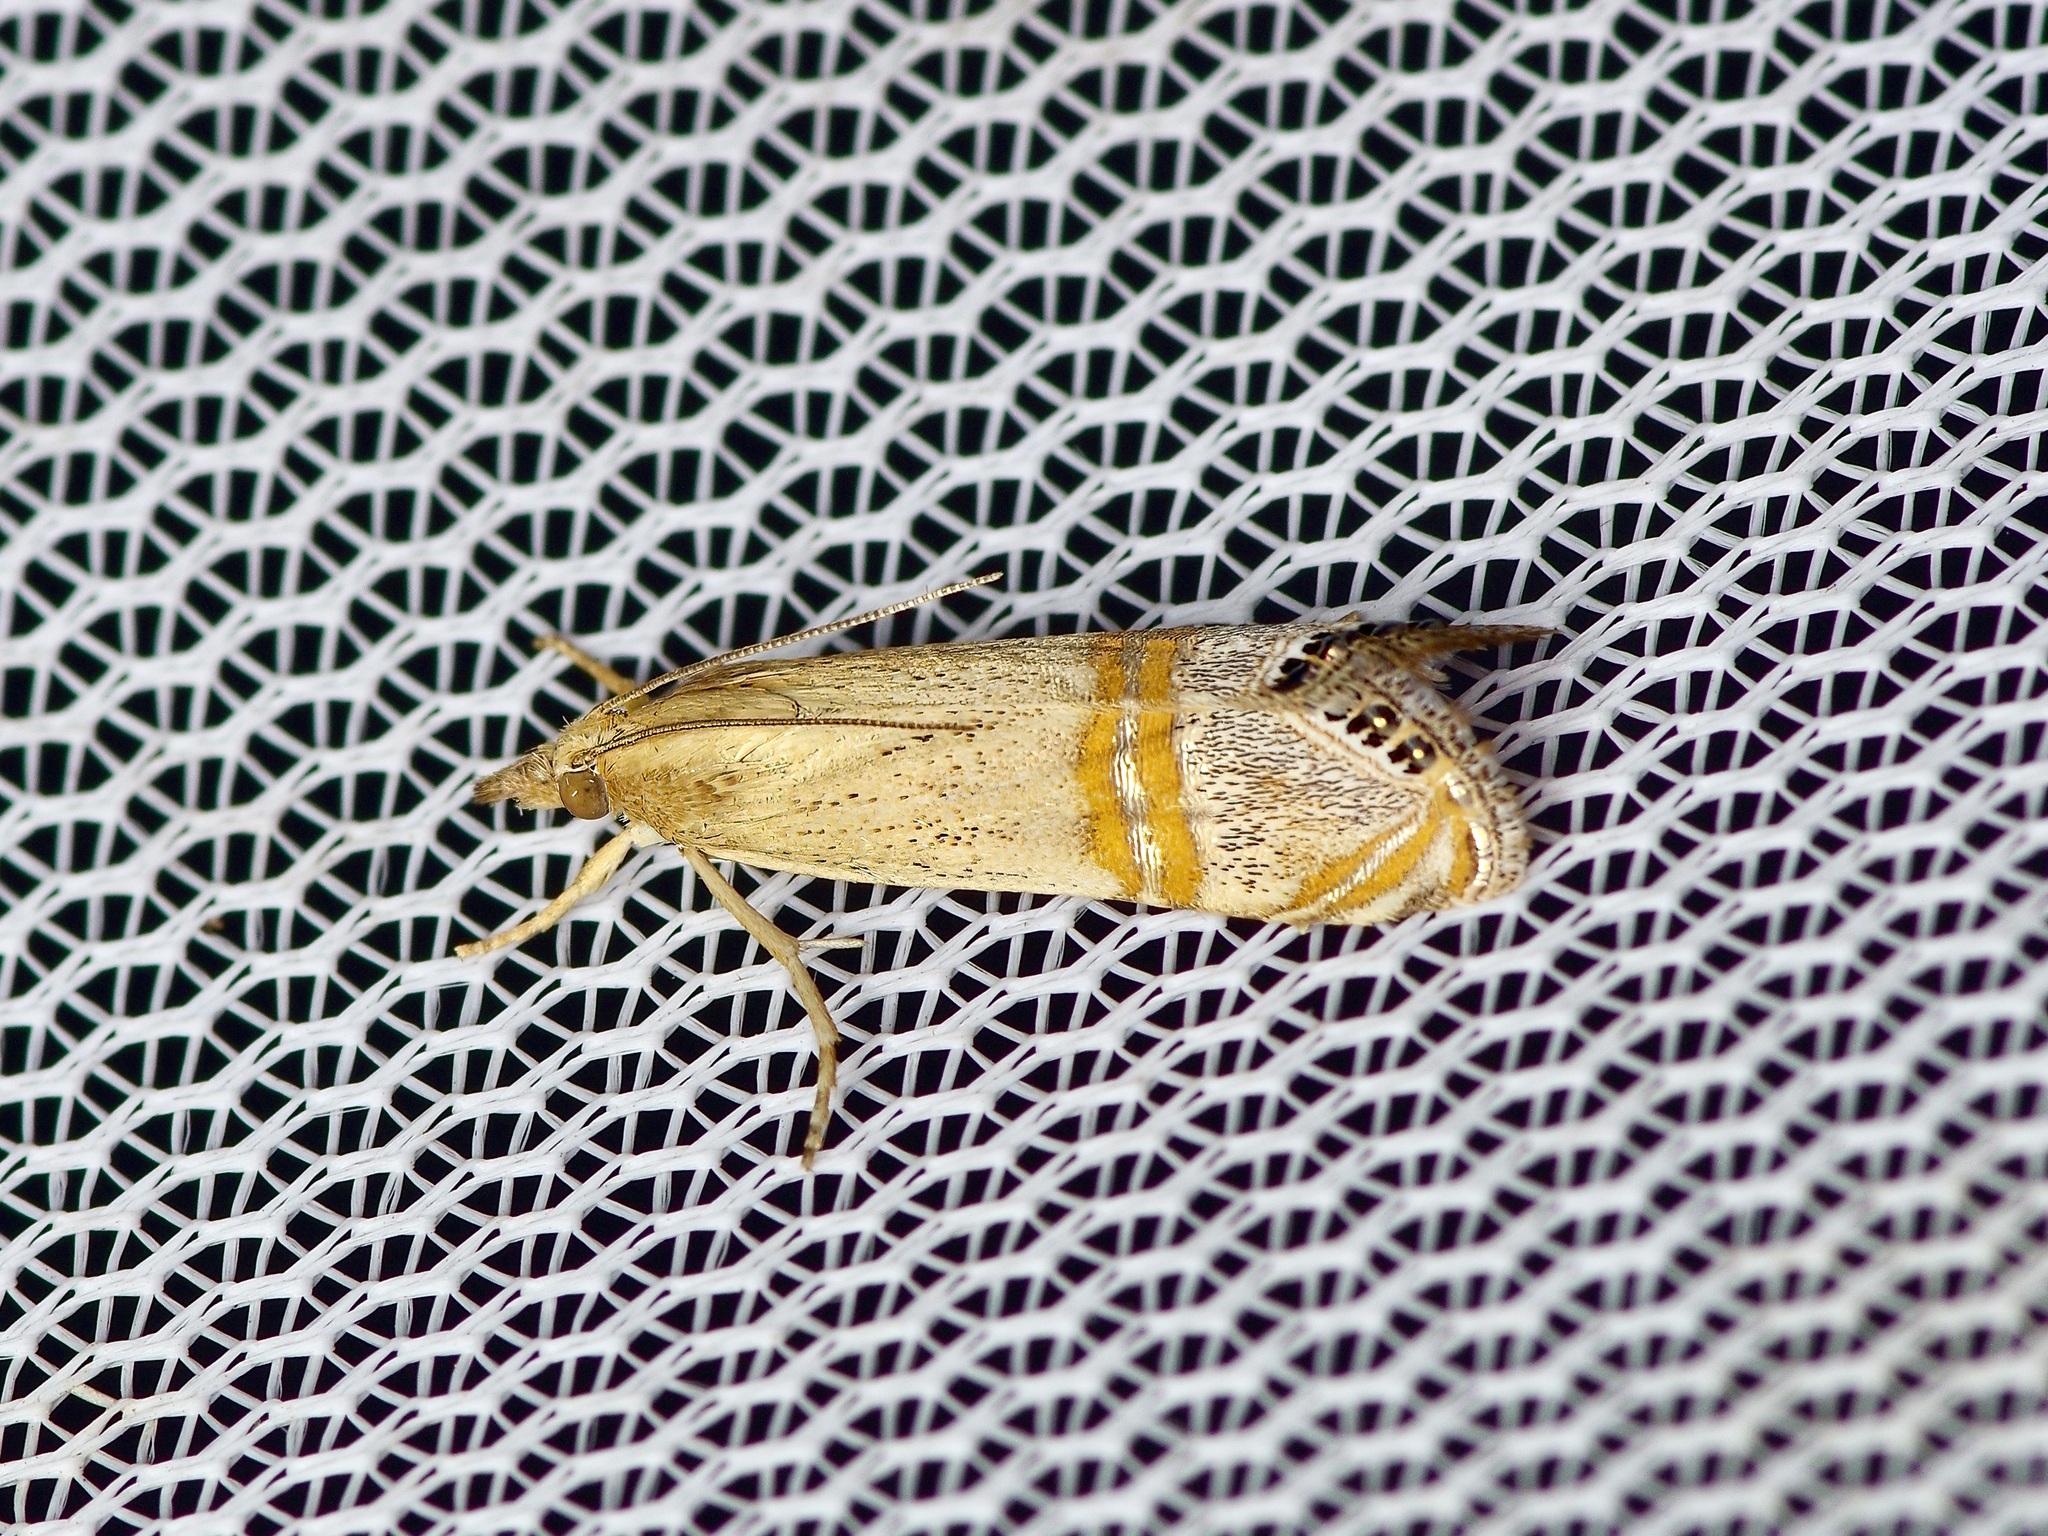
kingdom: Animalia
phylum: Arthropoda
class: Insecta
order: Lepidoptera
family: Crambidae
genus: Euchromius
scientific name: Euchromius ocellea
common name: Necklace veneer moth
